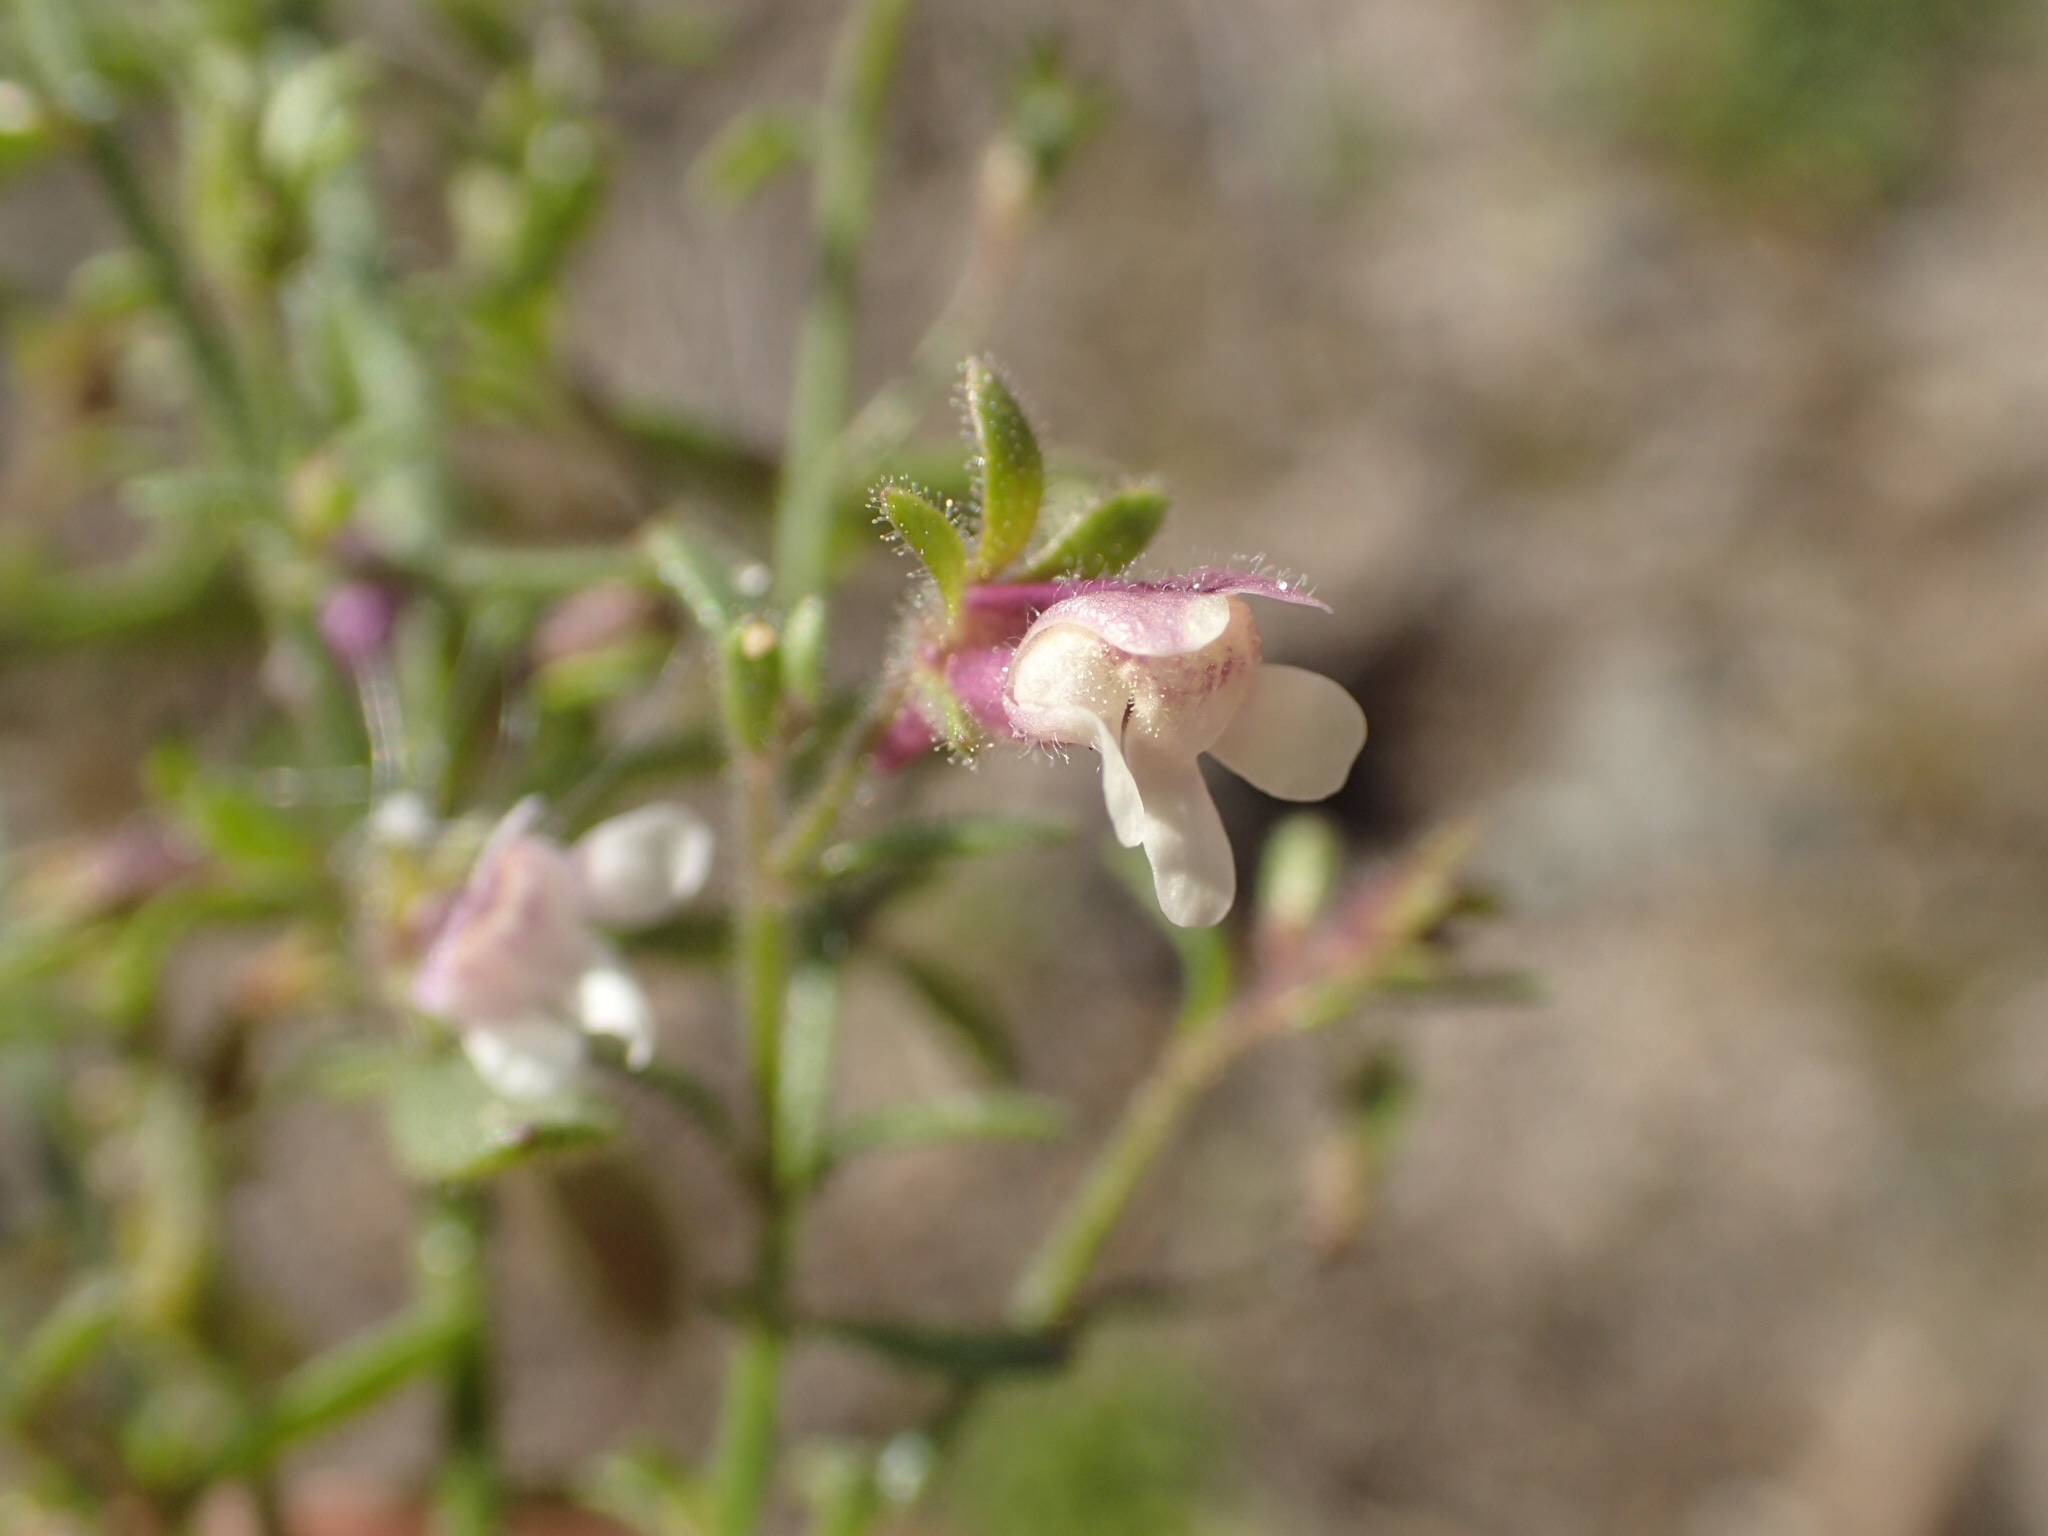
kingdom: Plantae
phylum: Tracheophyta
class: Magnoliopsida
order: Lamiales
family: Plantaginaceae
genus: Chaenorhinum
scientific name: Chaenorhinum minus
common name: Dwarf snapdragon
